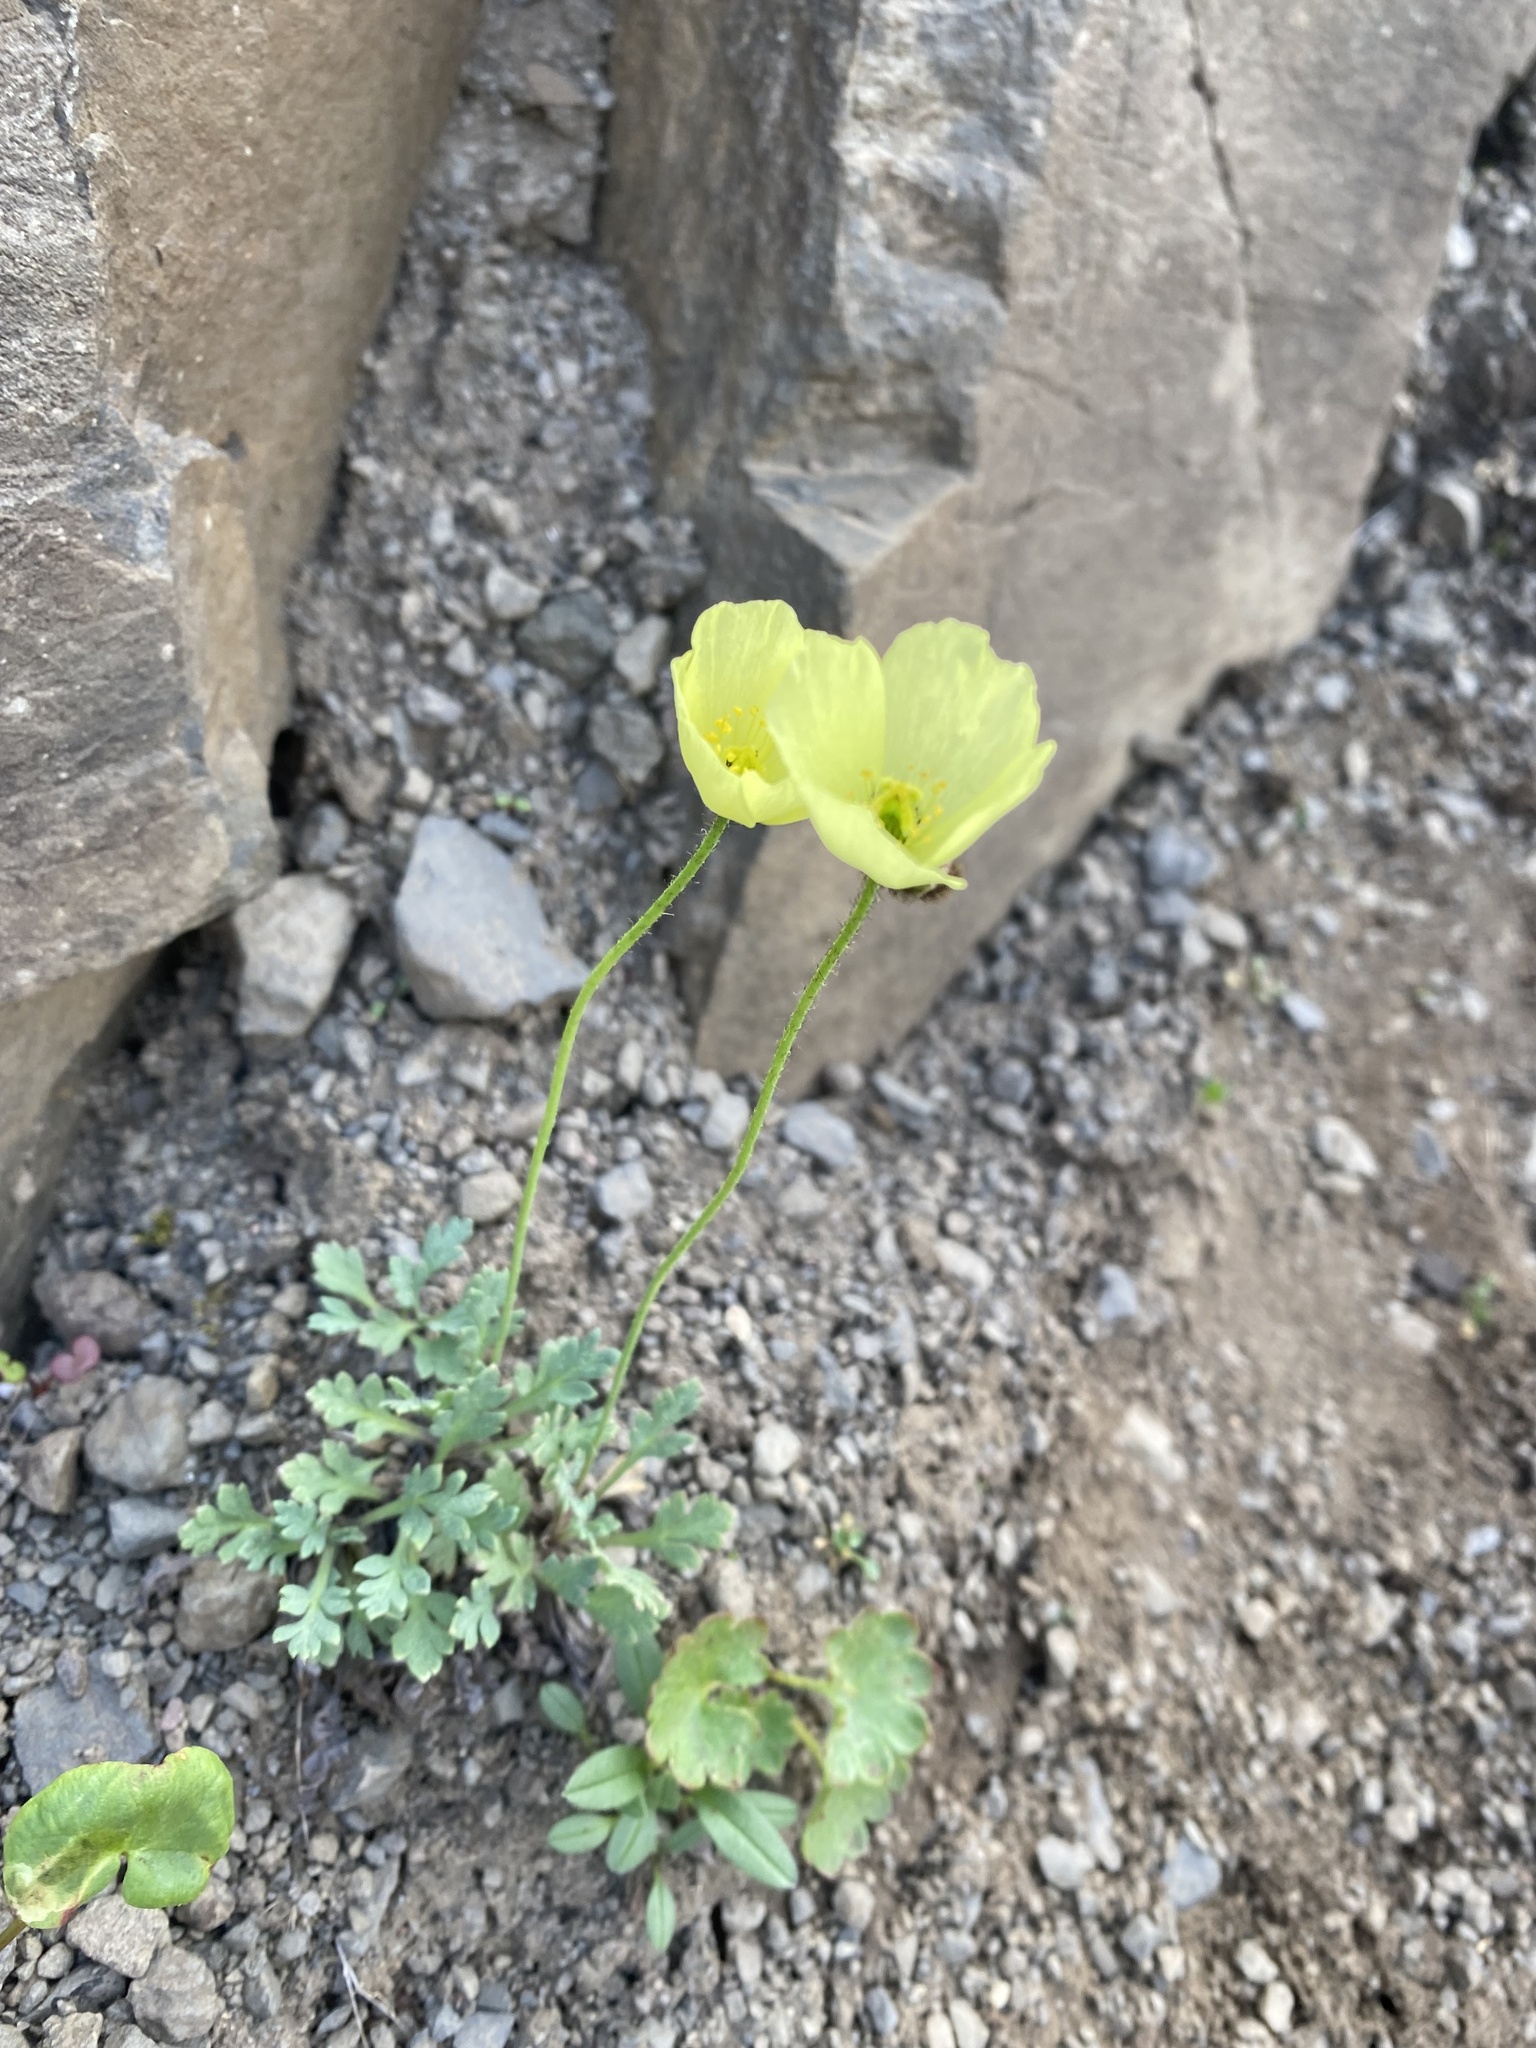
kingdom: Plantae
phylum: Tracheophyta
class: Magnoliopsida
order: Ranunculales
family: Papaveraceae
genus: Papaver
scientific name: Papaver pulvinatum
